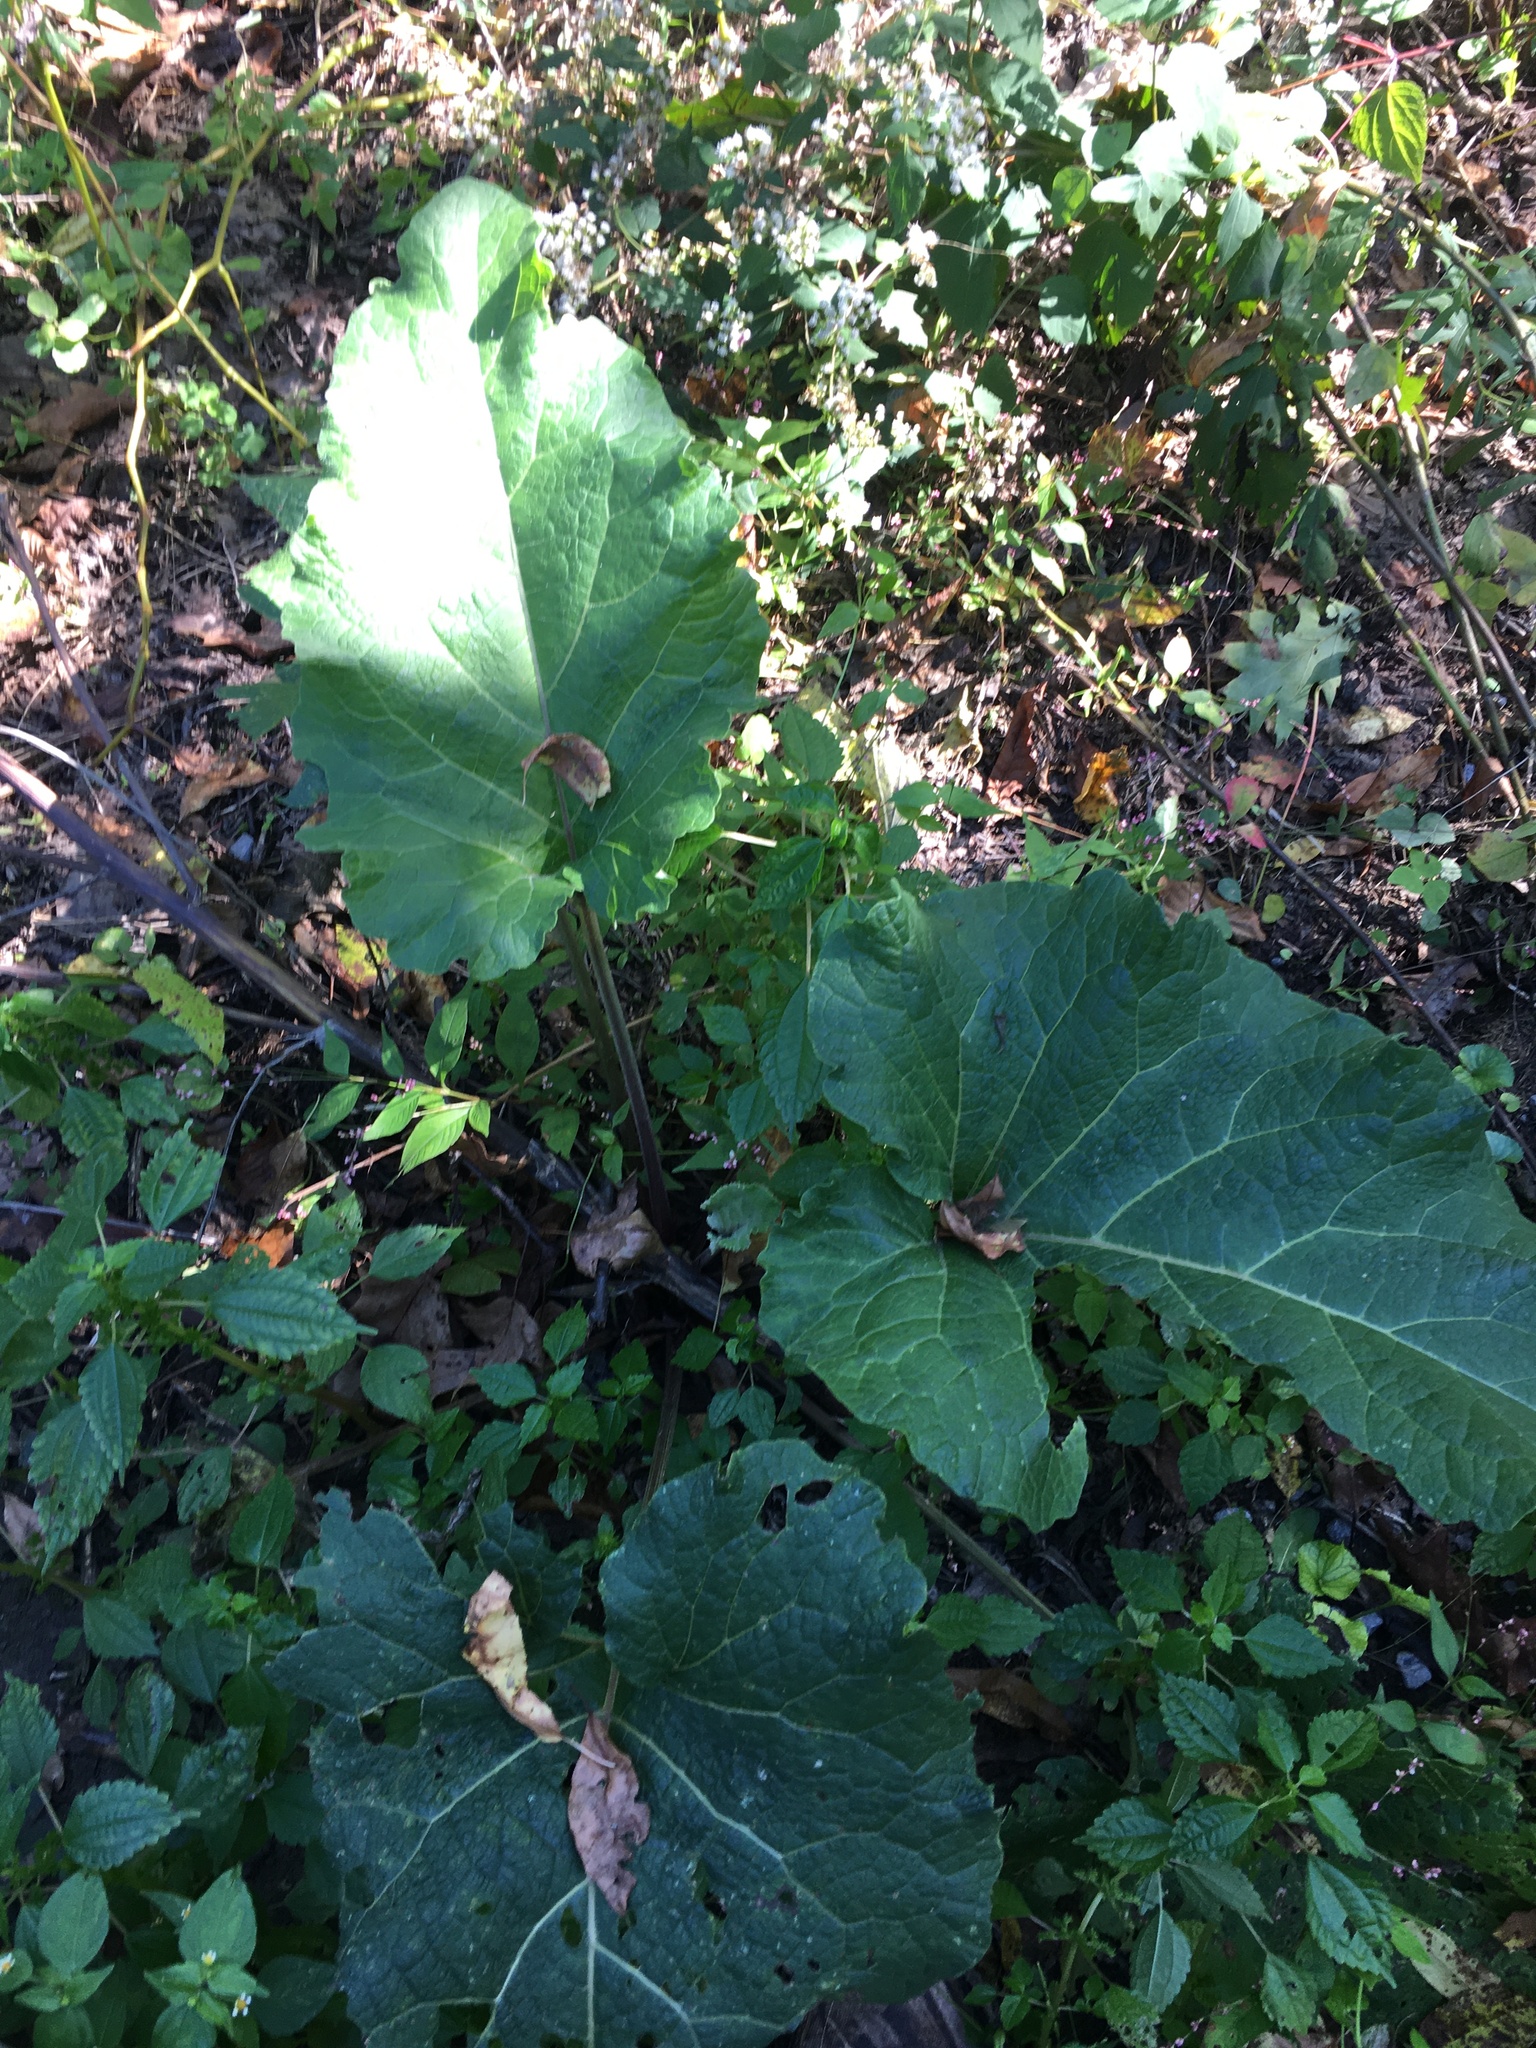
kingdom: Plantae
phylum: Tracheophyta
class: Magnoliopsida
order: Asterales
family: Asteraceae
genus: Arctium
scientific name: Arctium minus
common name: Lesser burdock
